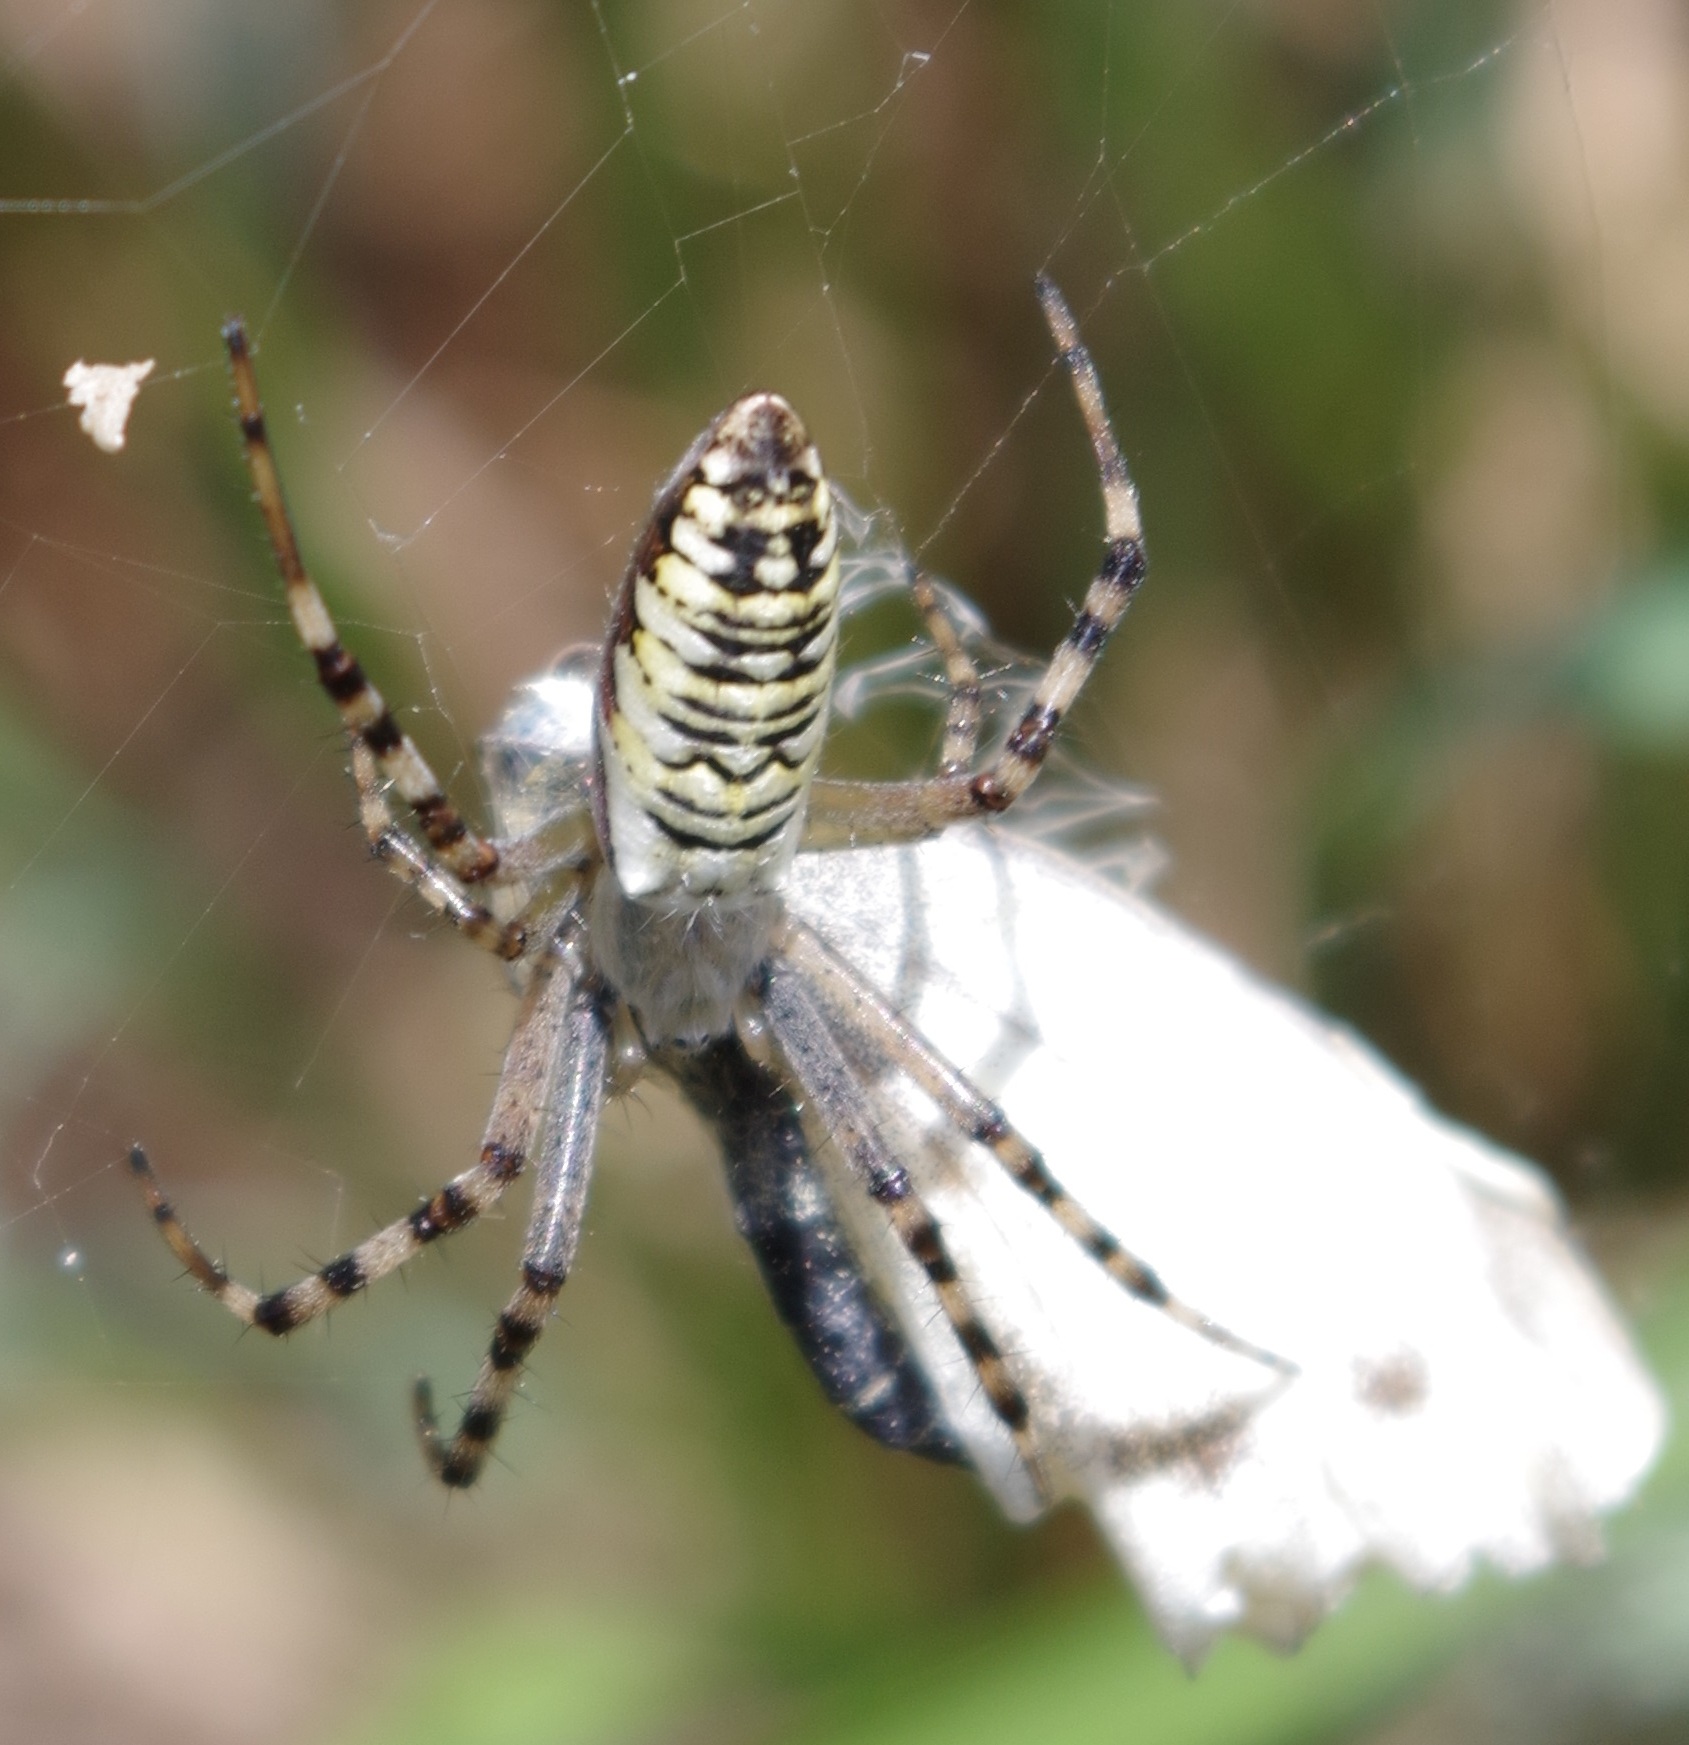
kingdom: Animalia
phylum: Arthropoda
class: Arachnida
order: Araneae
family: Araneidae
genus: Argiope
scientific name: Argiope bruennichi
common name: Wasp spider
